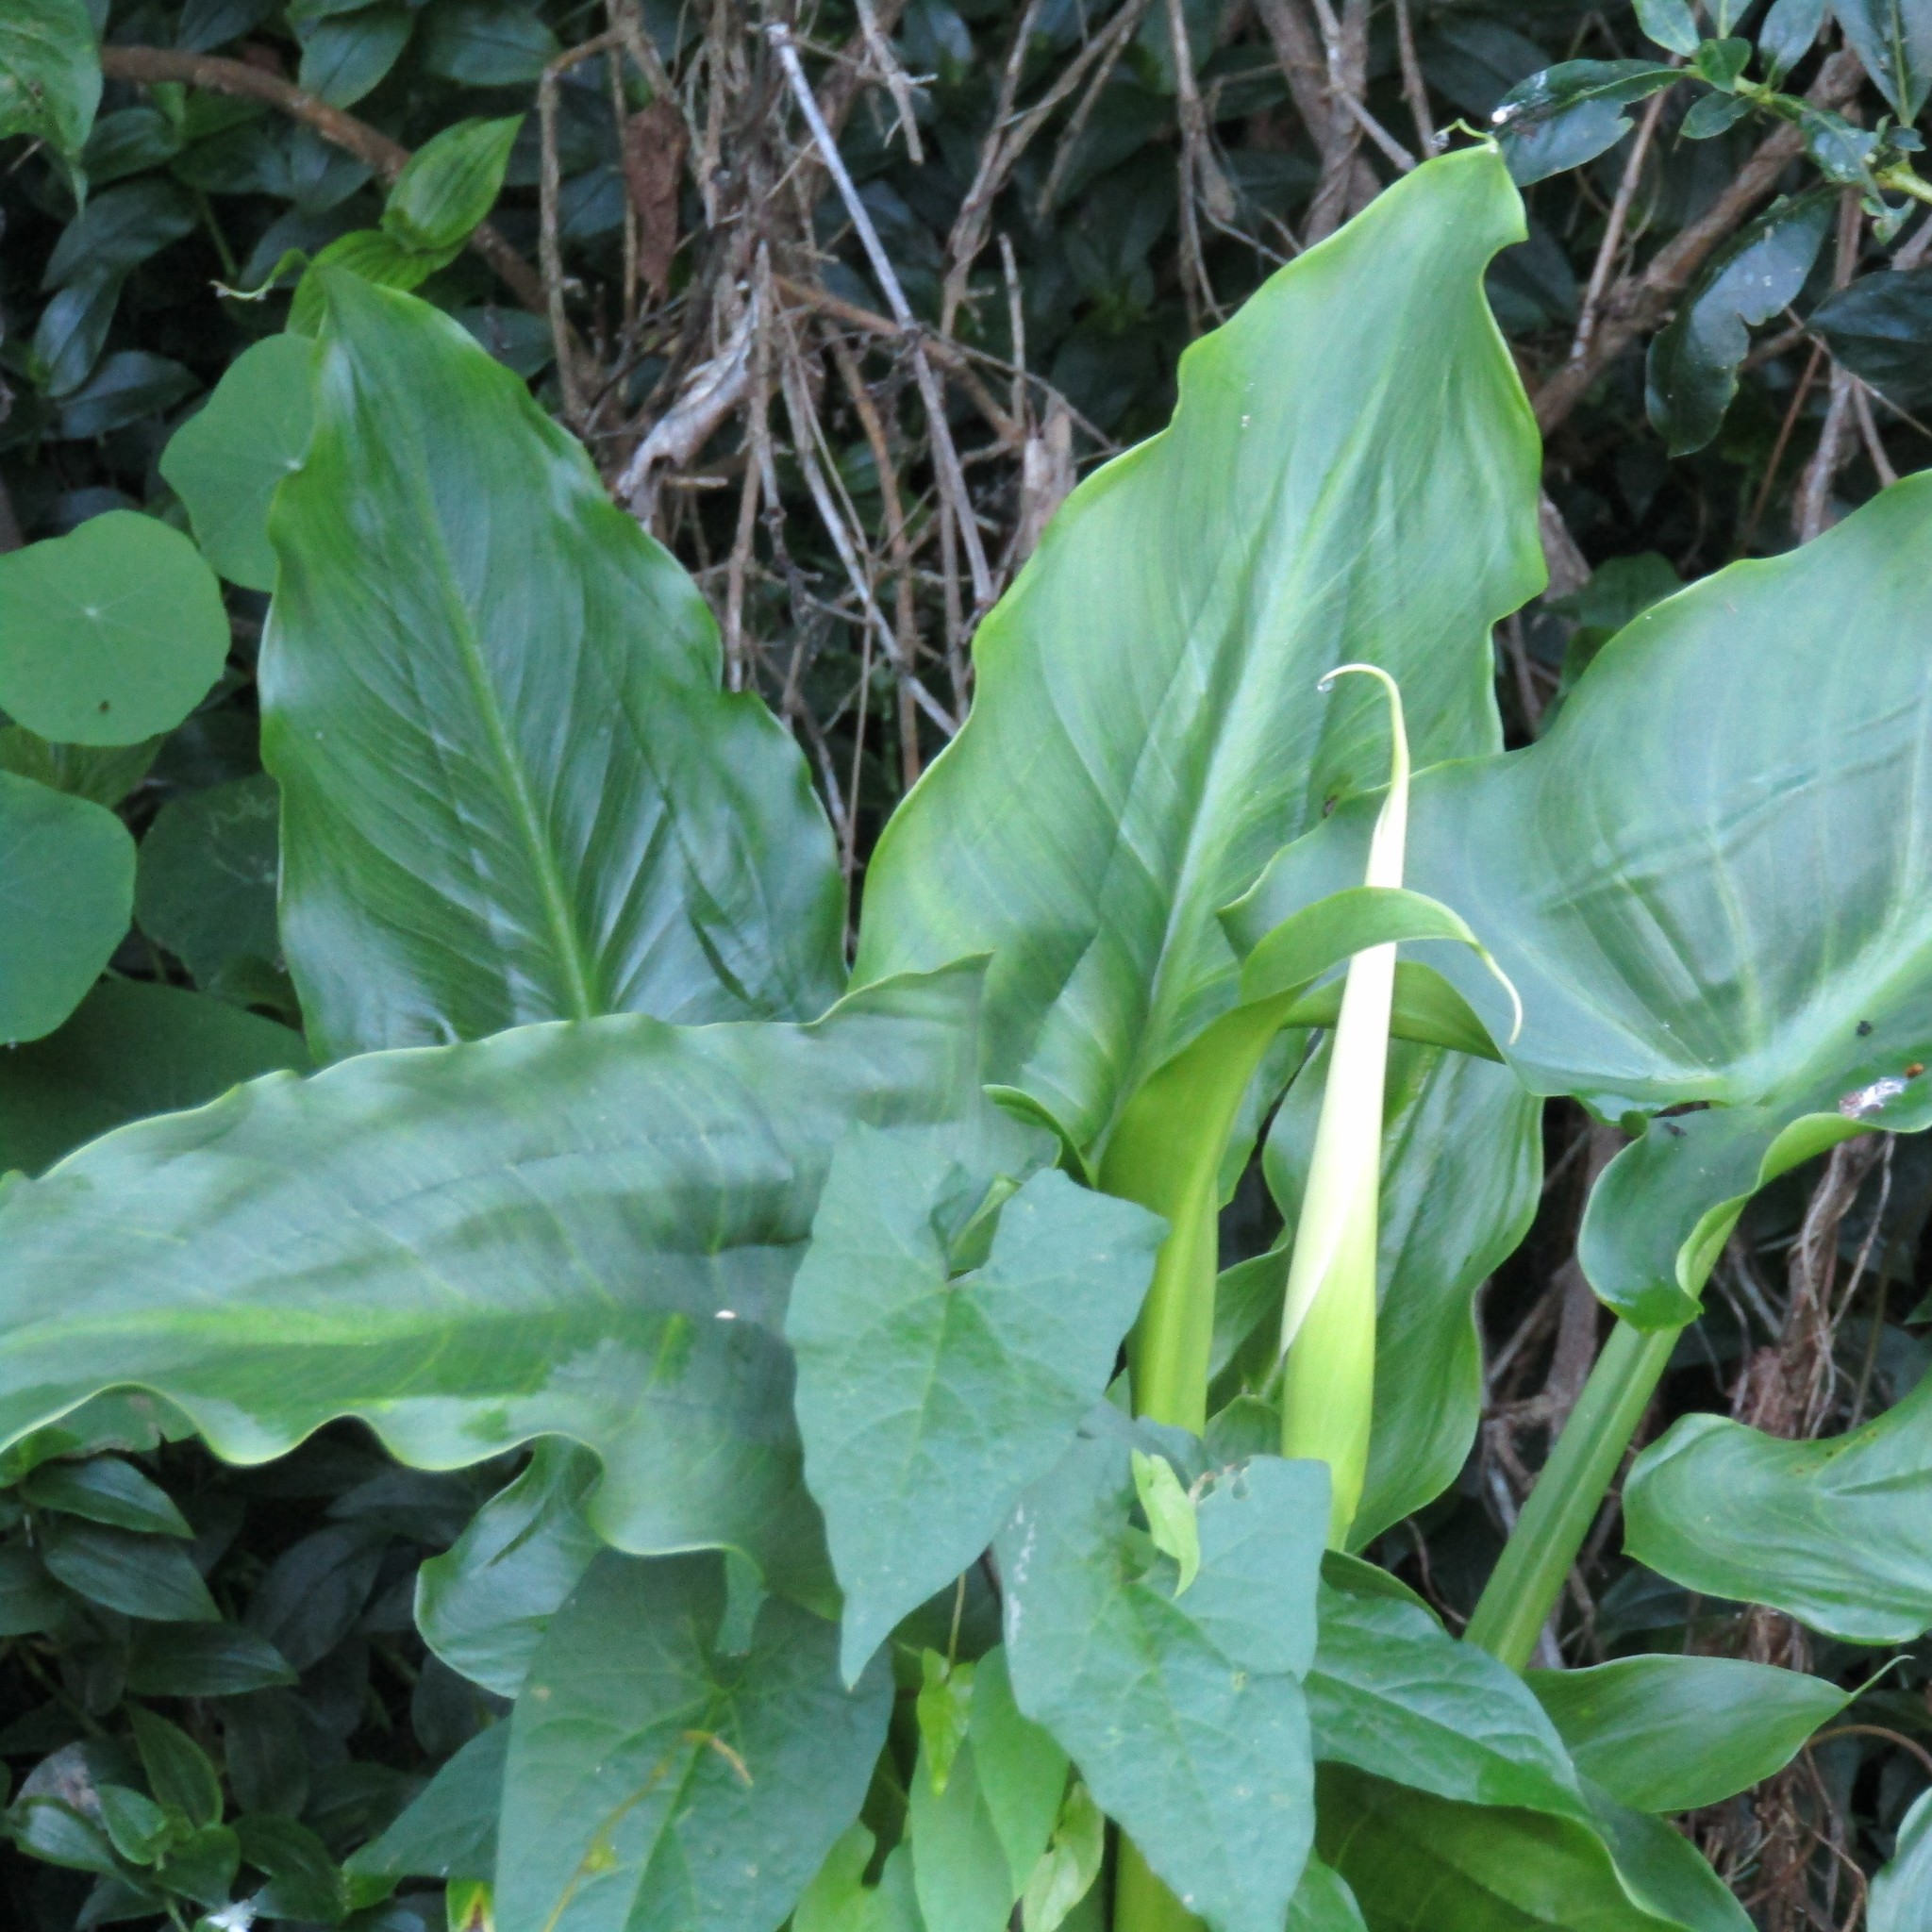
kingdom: Plantae
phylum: Tracheophyta
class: Liliopsida
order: Alismatales
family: Araceae
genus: Zantedeschia
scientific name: Zantedeschia aethiopica
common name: Altar-lily
